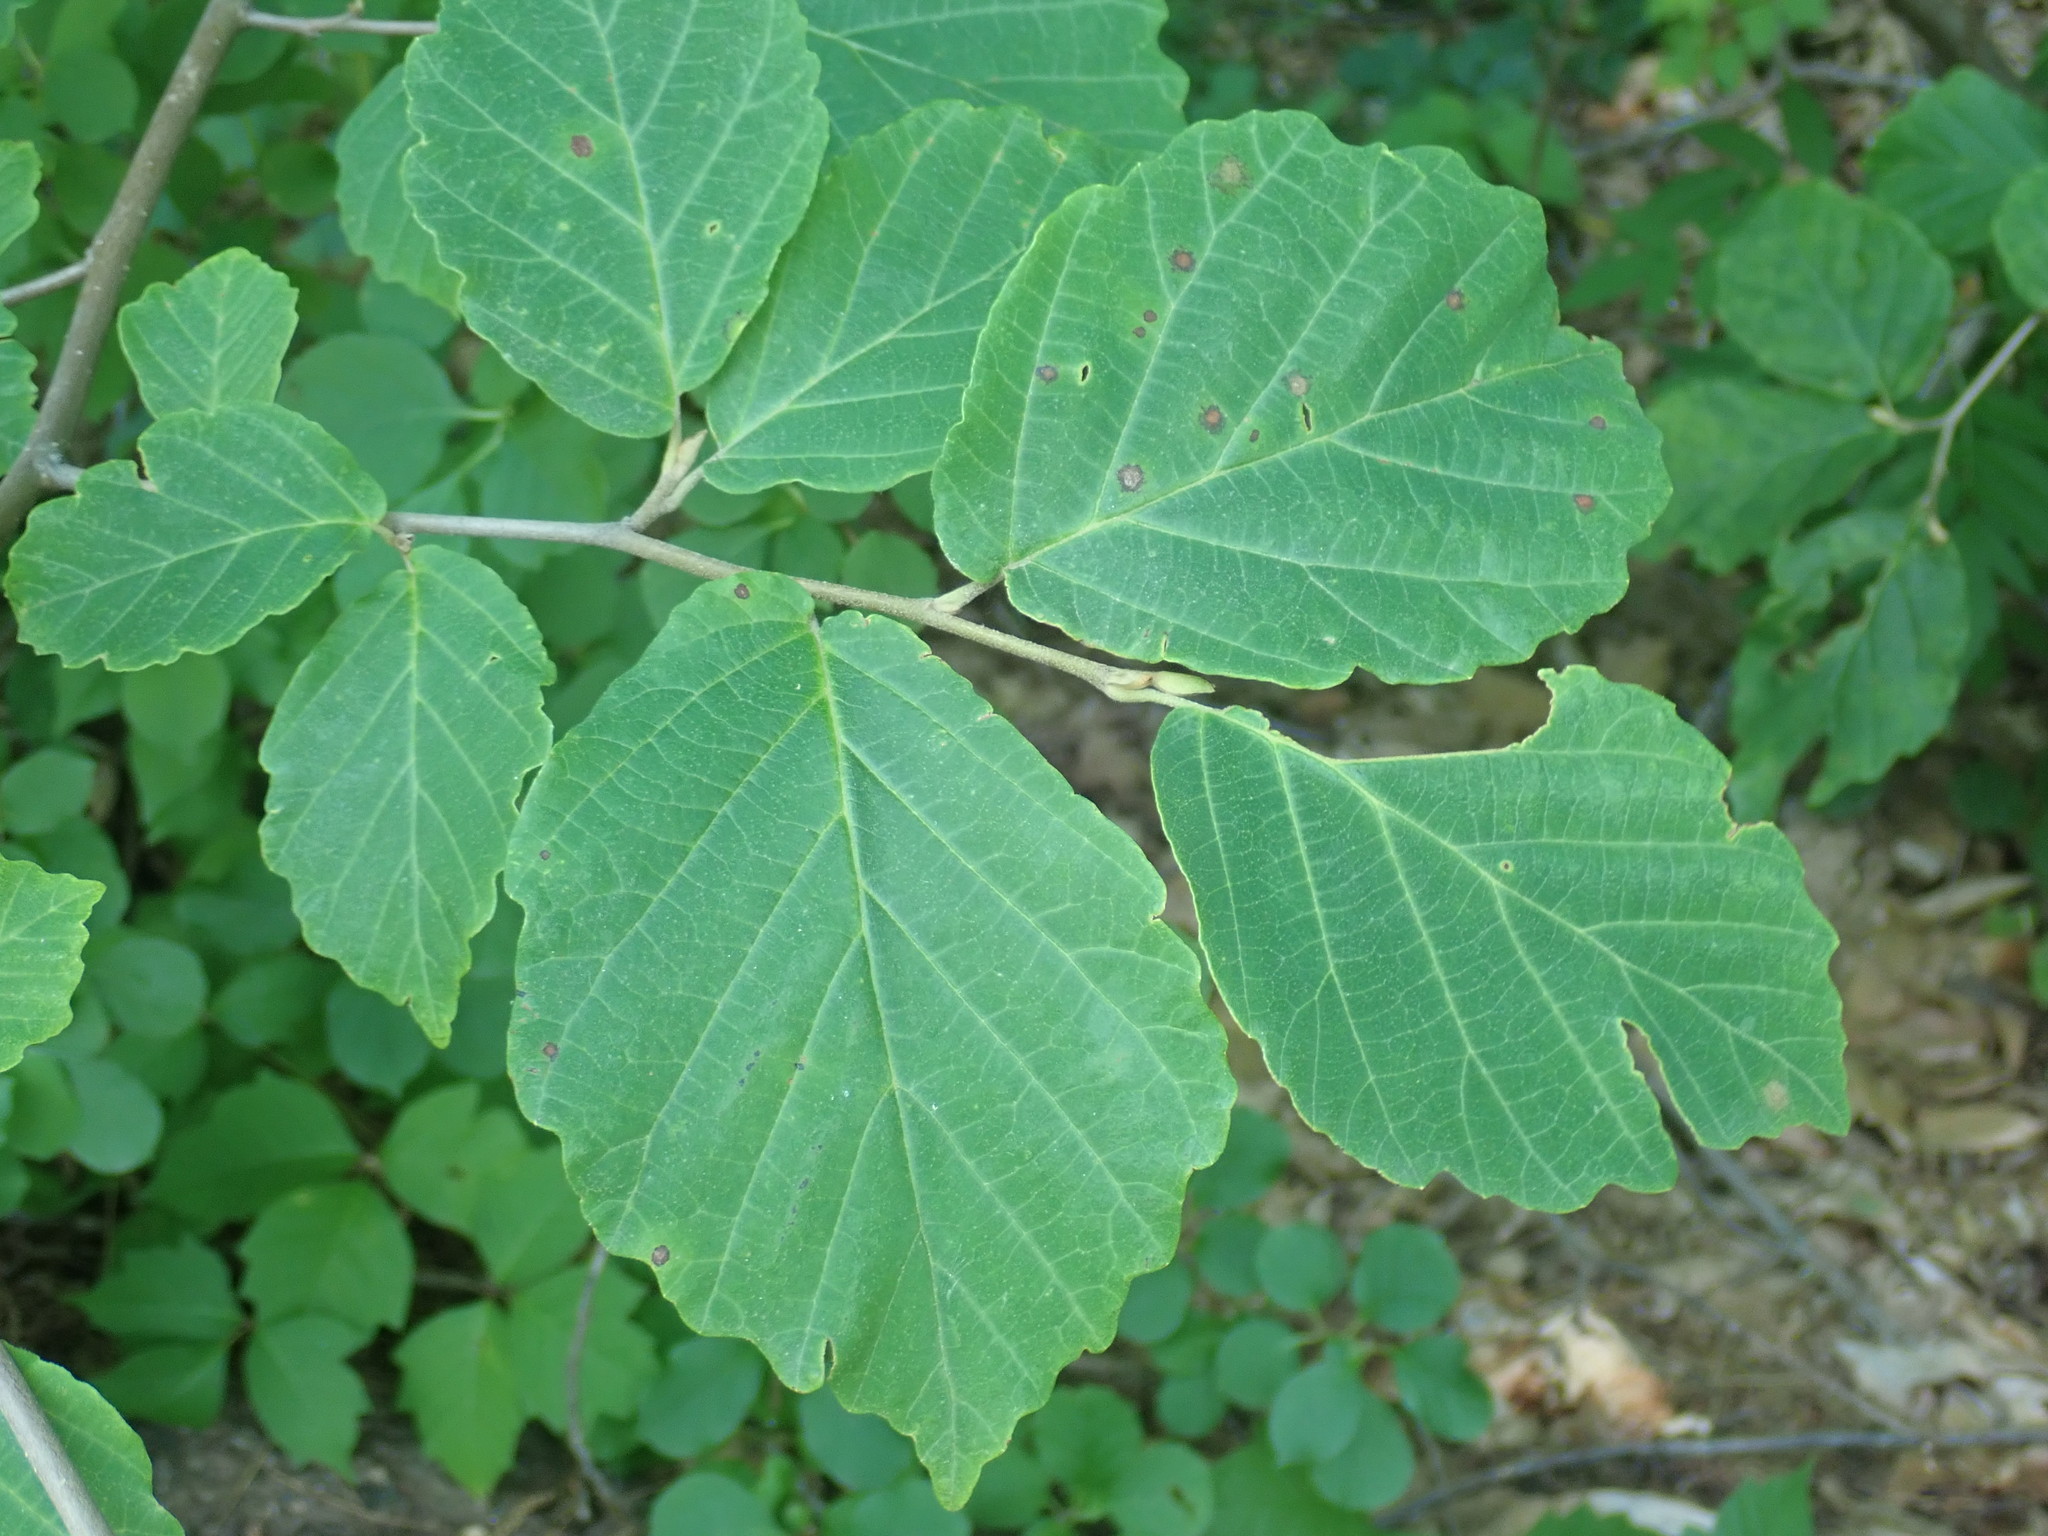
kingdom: Plantae
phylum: Tracheophyta
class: Magnoliopsida
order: Saxifragales
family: Hamamelidaceae
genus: Hamamelis
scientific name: Hamamelis virginiana
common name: Witch-hazel
